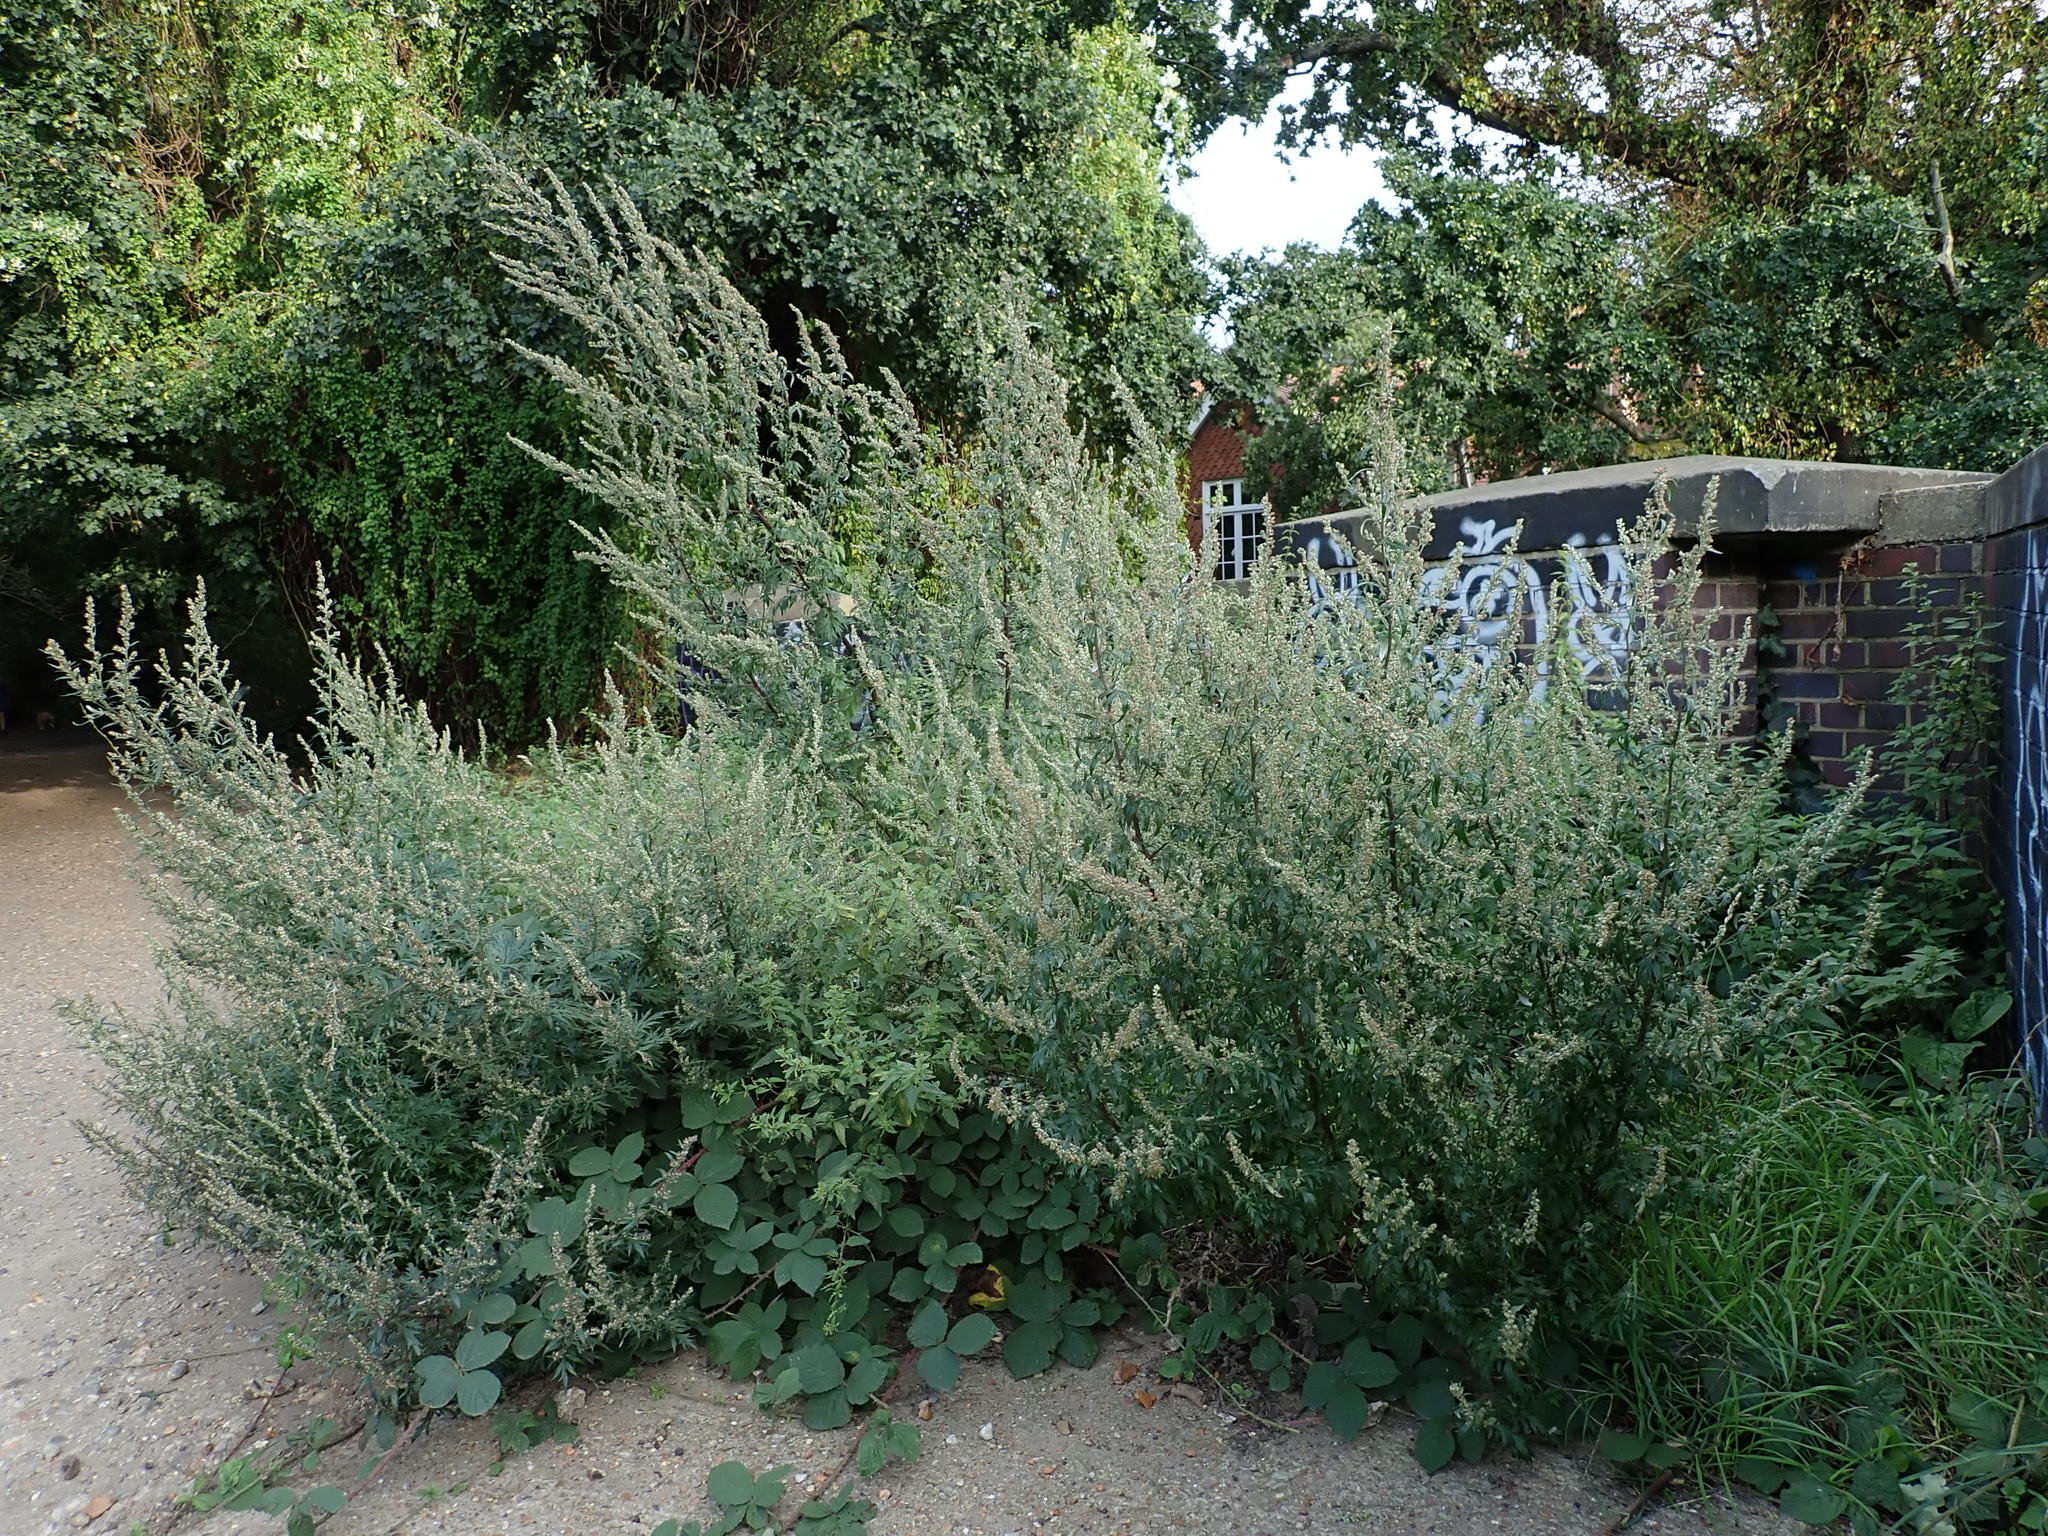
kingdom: Plantae
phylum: Tracheophyta
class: Magnoliopsida
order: Asterales
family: Asteraceae
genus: Artemisia
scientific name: Artemisia vulgaris
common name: Mugwort
